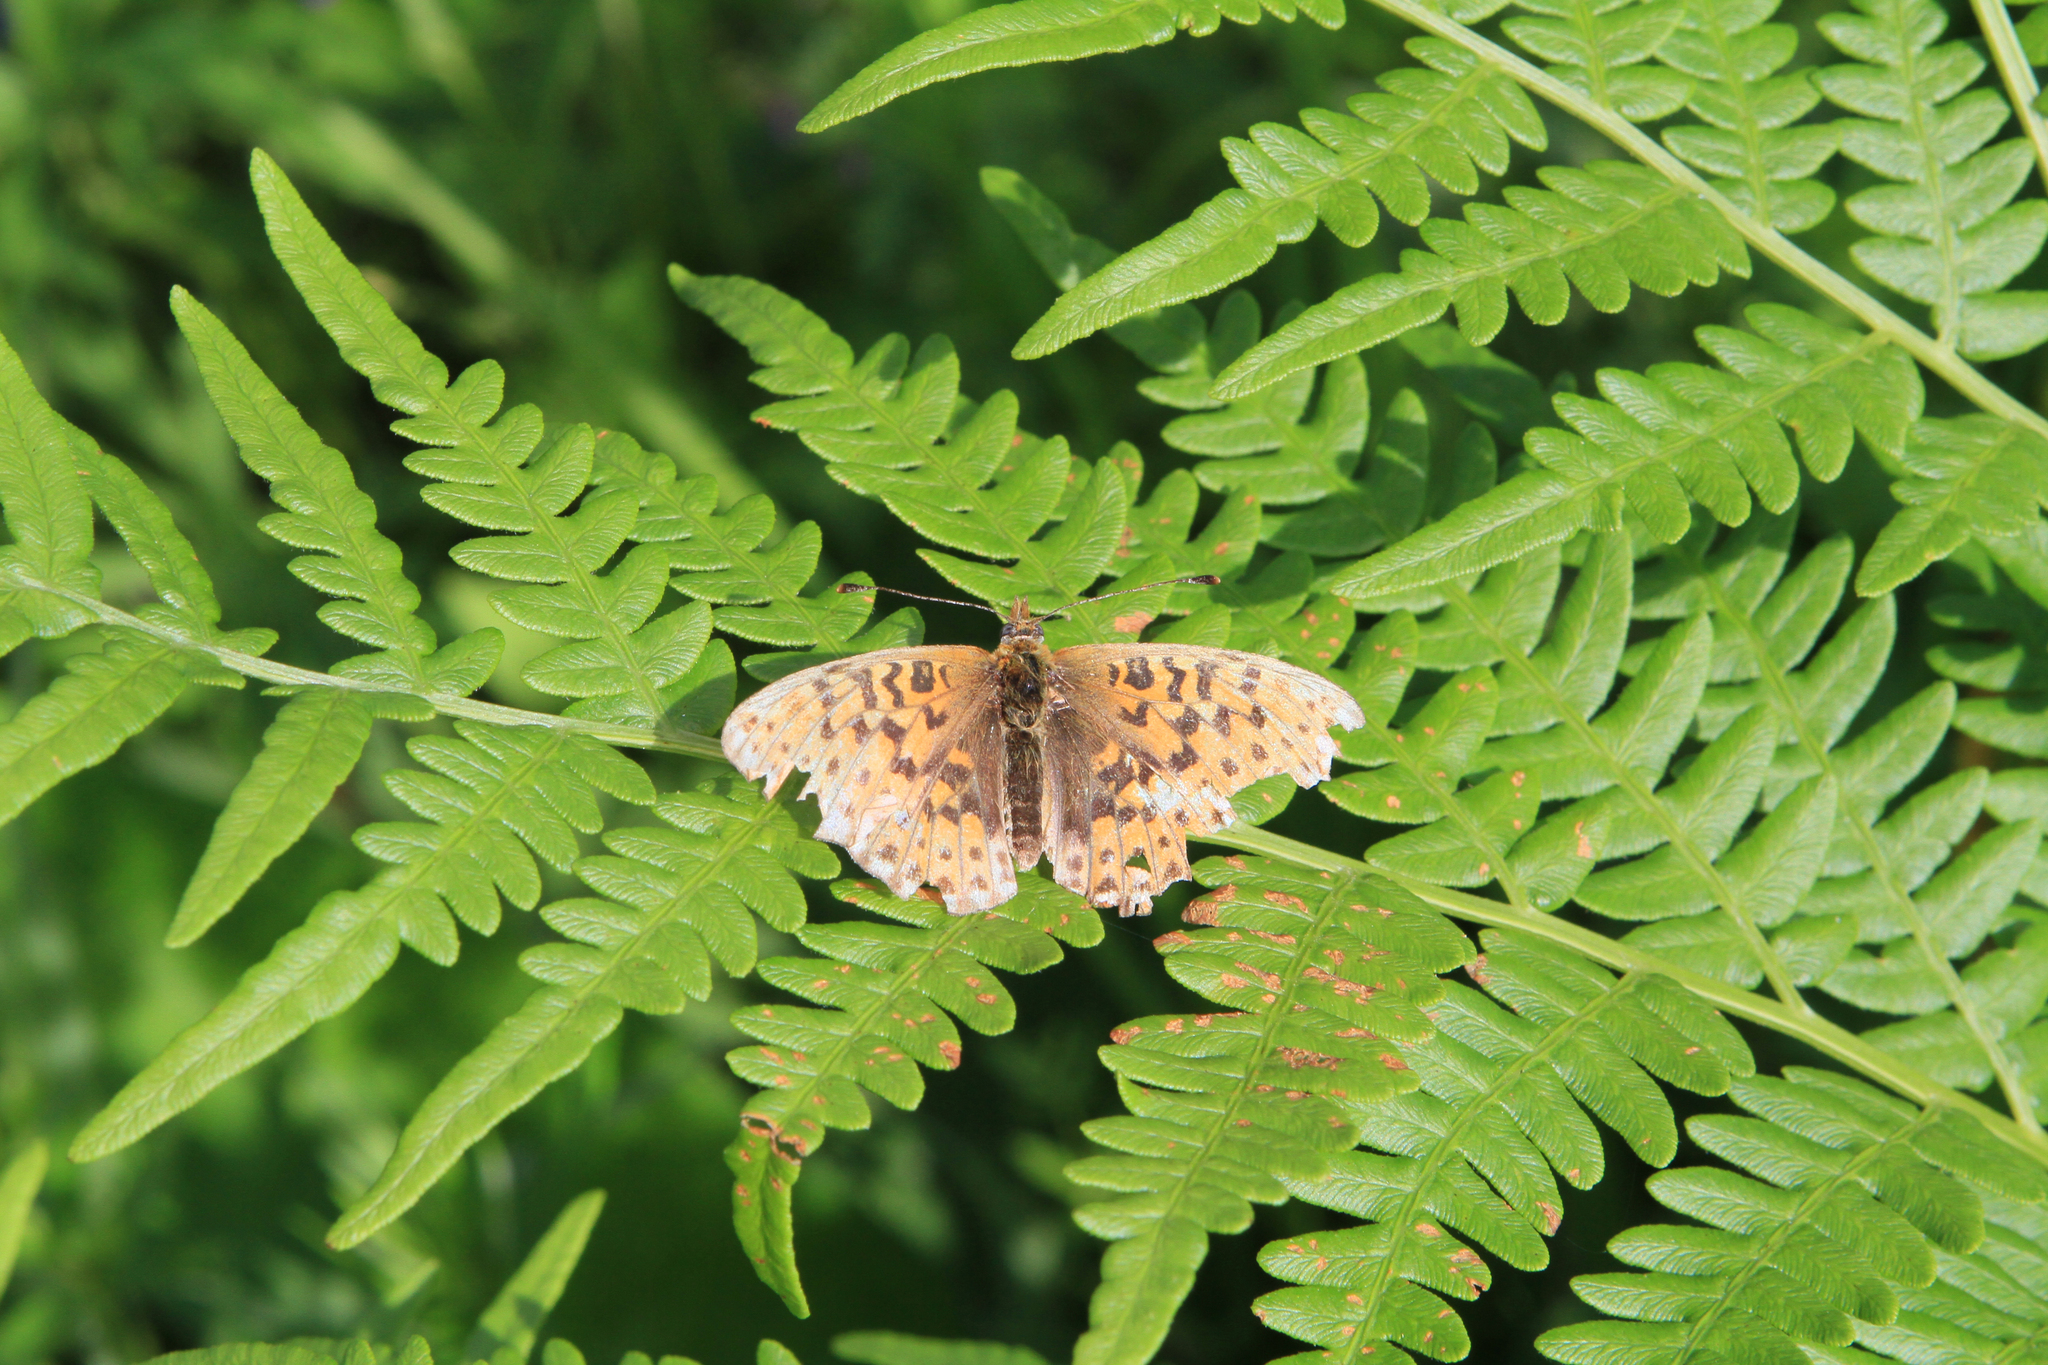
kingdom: Plantae
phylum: Tracheophyta
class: Polypodiopsida
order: Polypodiales
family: Dennstaedtiaceae
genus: Pteridium
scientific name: Pteridium aquilinum
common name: Bracken
